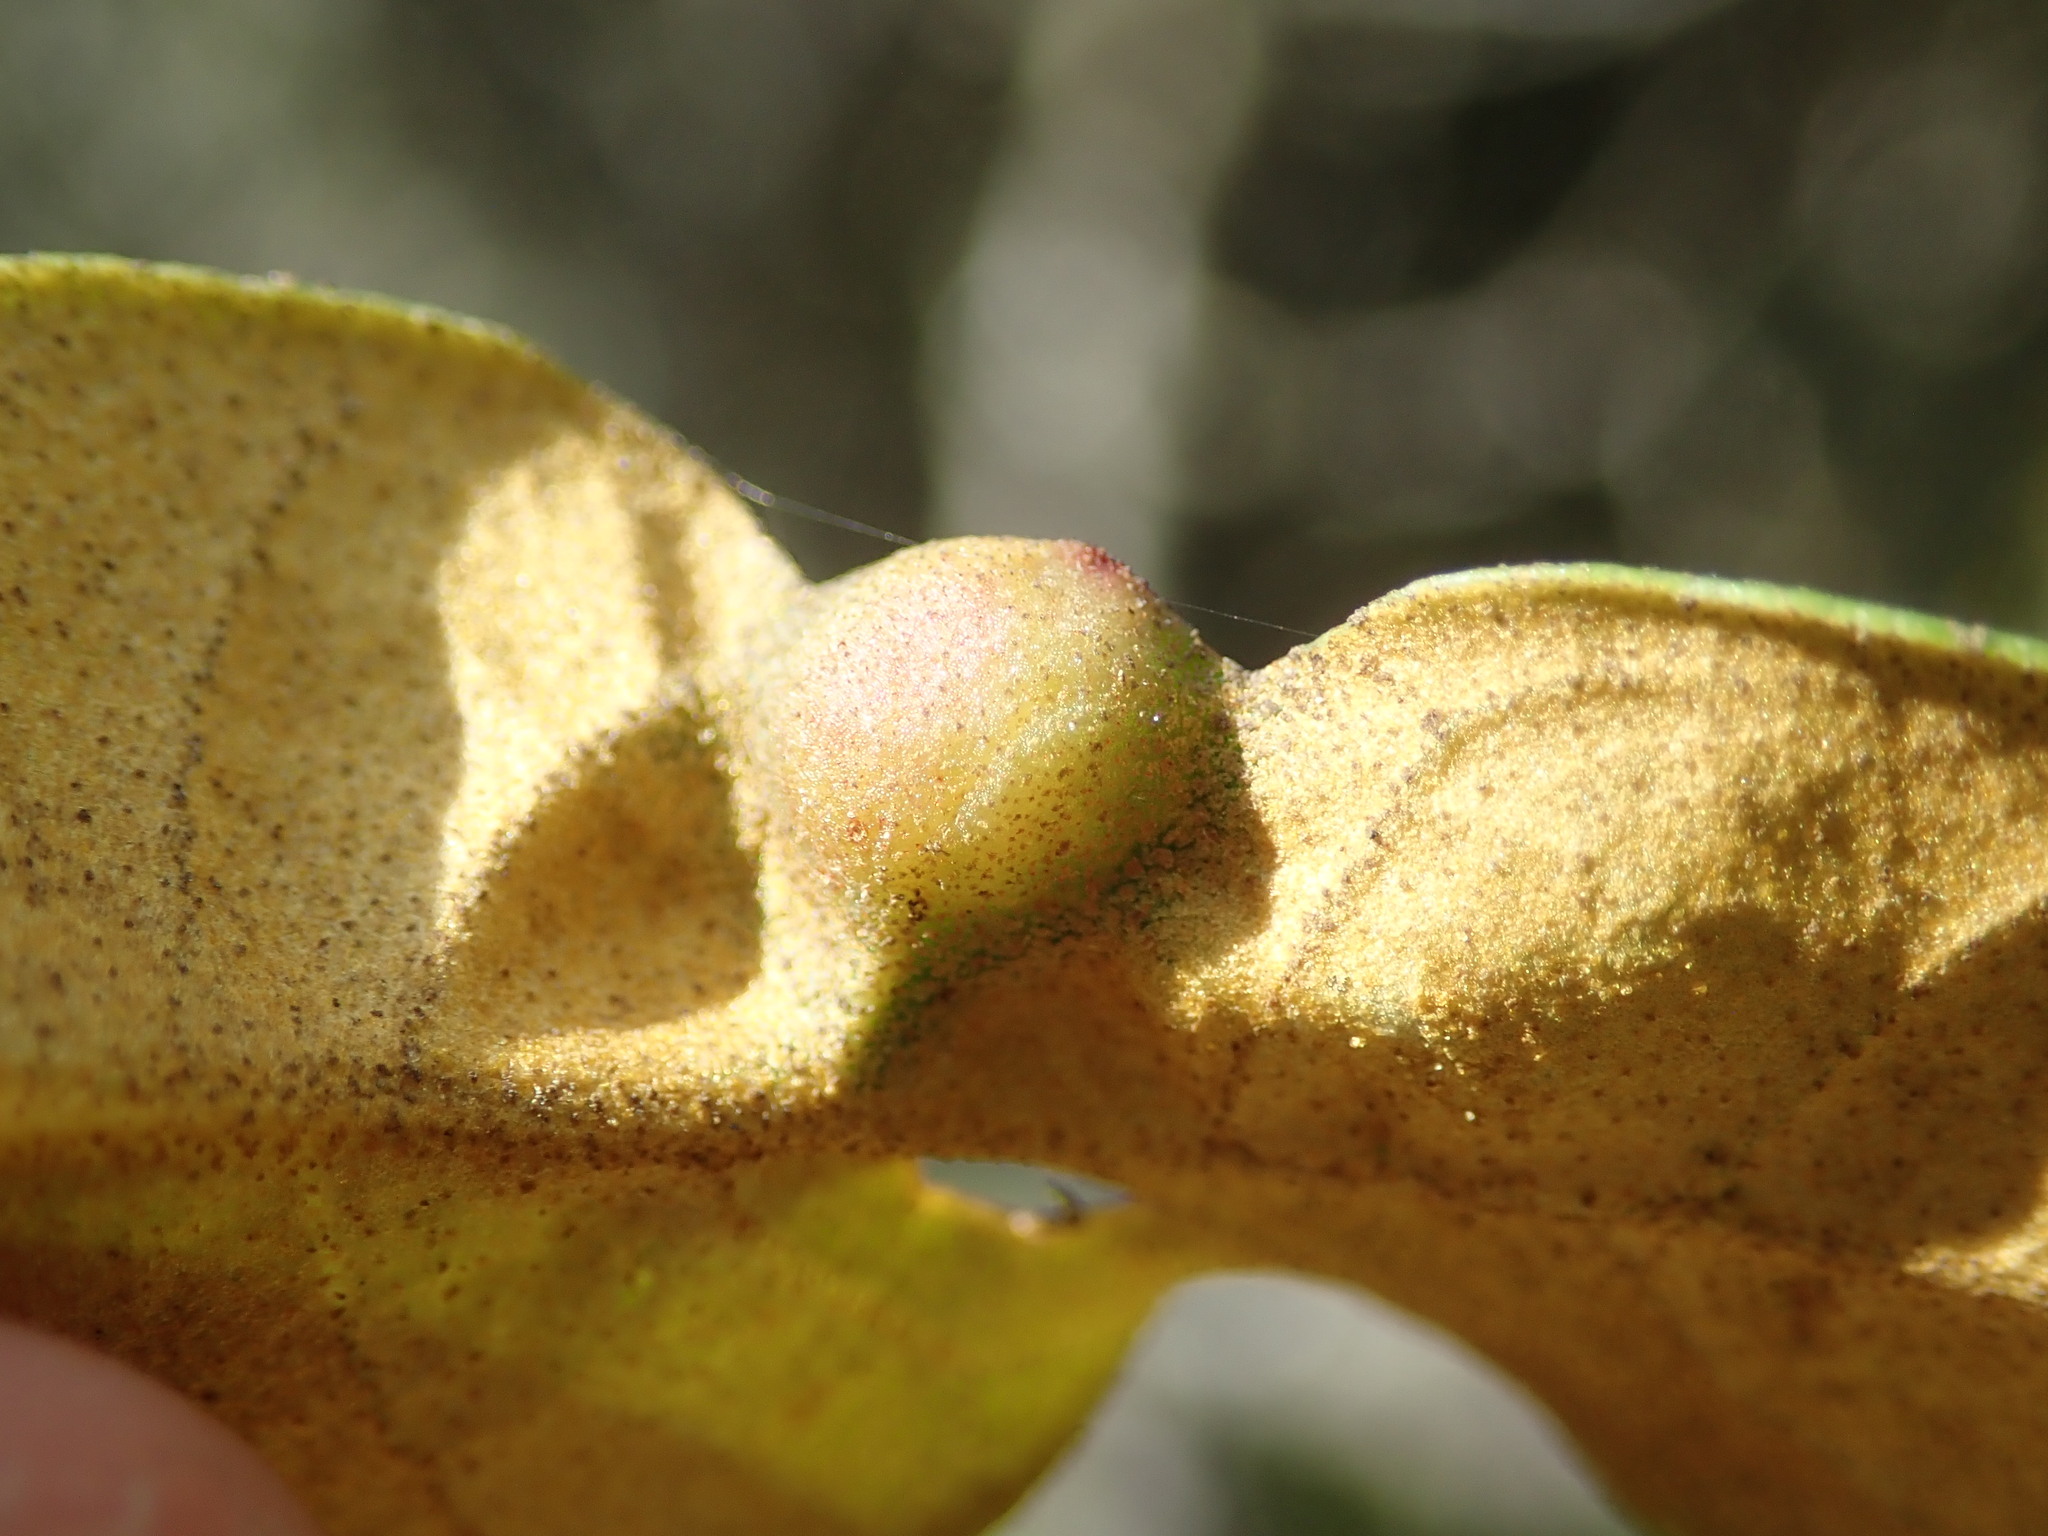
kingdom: Animalia
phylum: Arthropoda
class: Insecta
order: Hymenoptera
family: Cynipidae
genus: Dryocosmus
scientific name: Dryocosmus juliae
